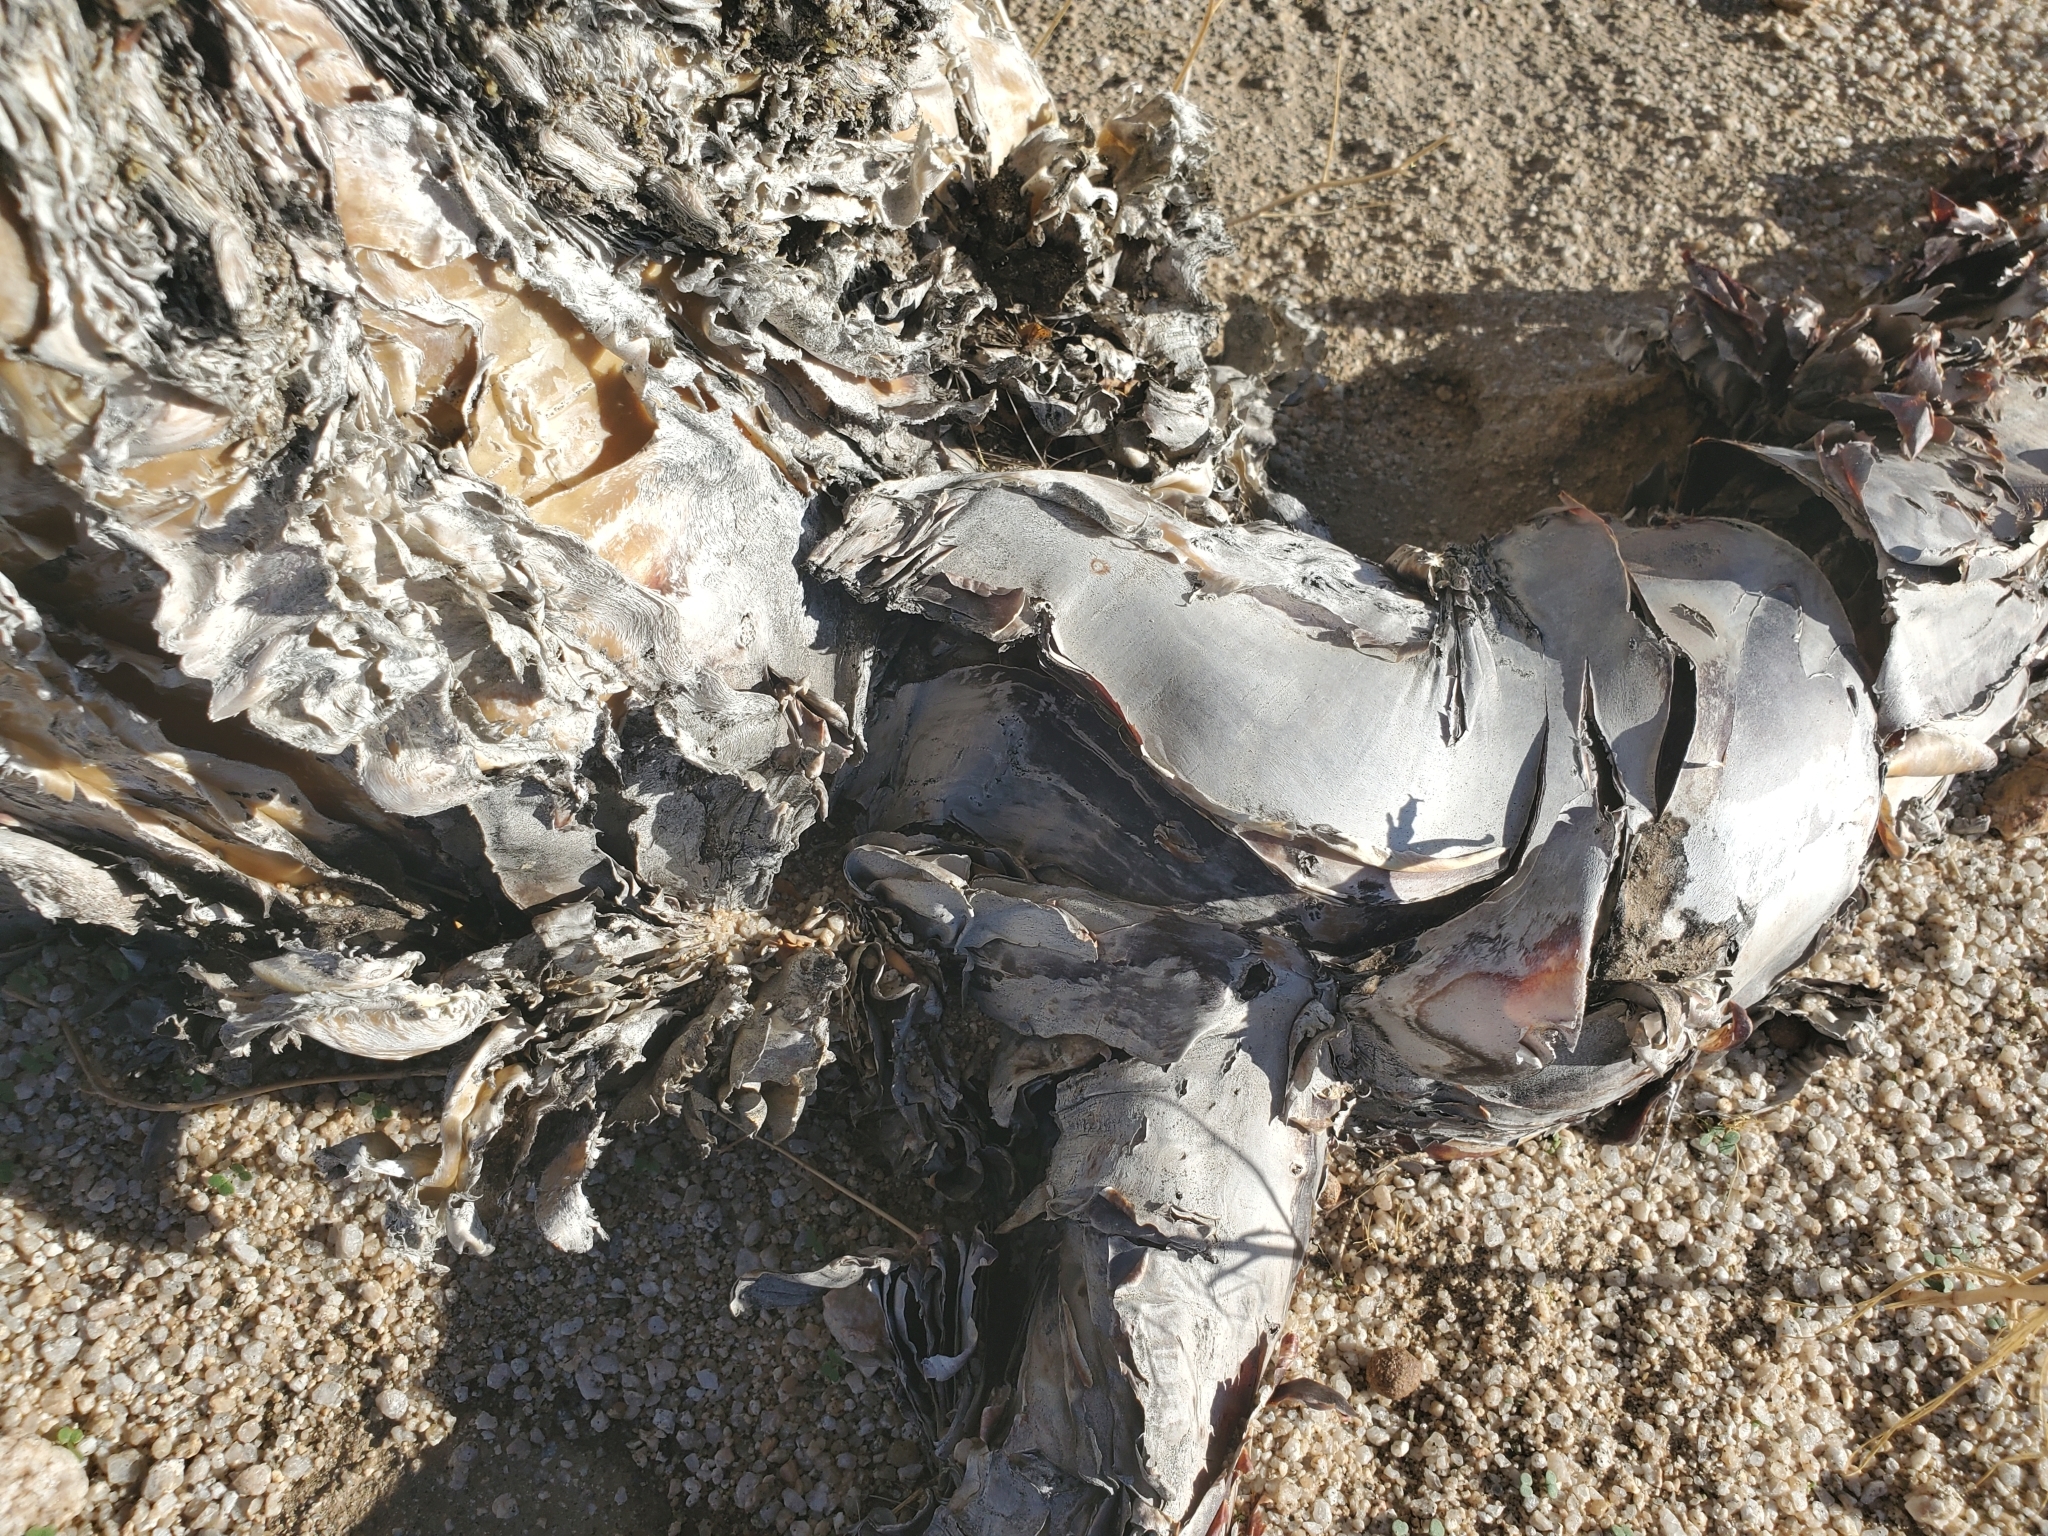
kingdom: Plantae
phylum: Tracheophyta
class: Magnoliopsida
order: Ericales
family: Fouquieriaceae
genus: Fouquieria
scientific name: Fouquieria splendens
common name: Vine-cactus
